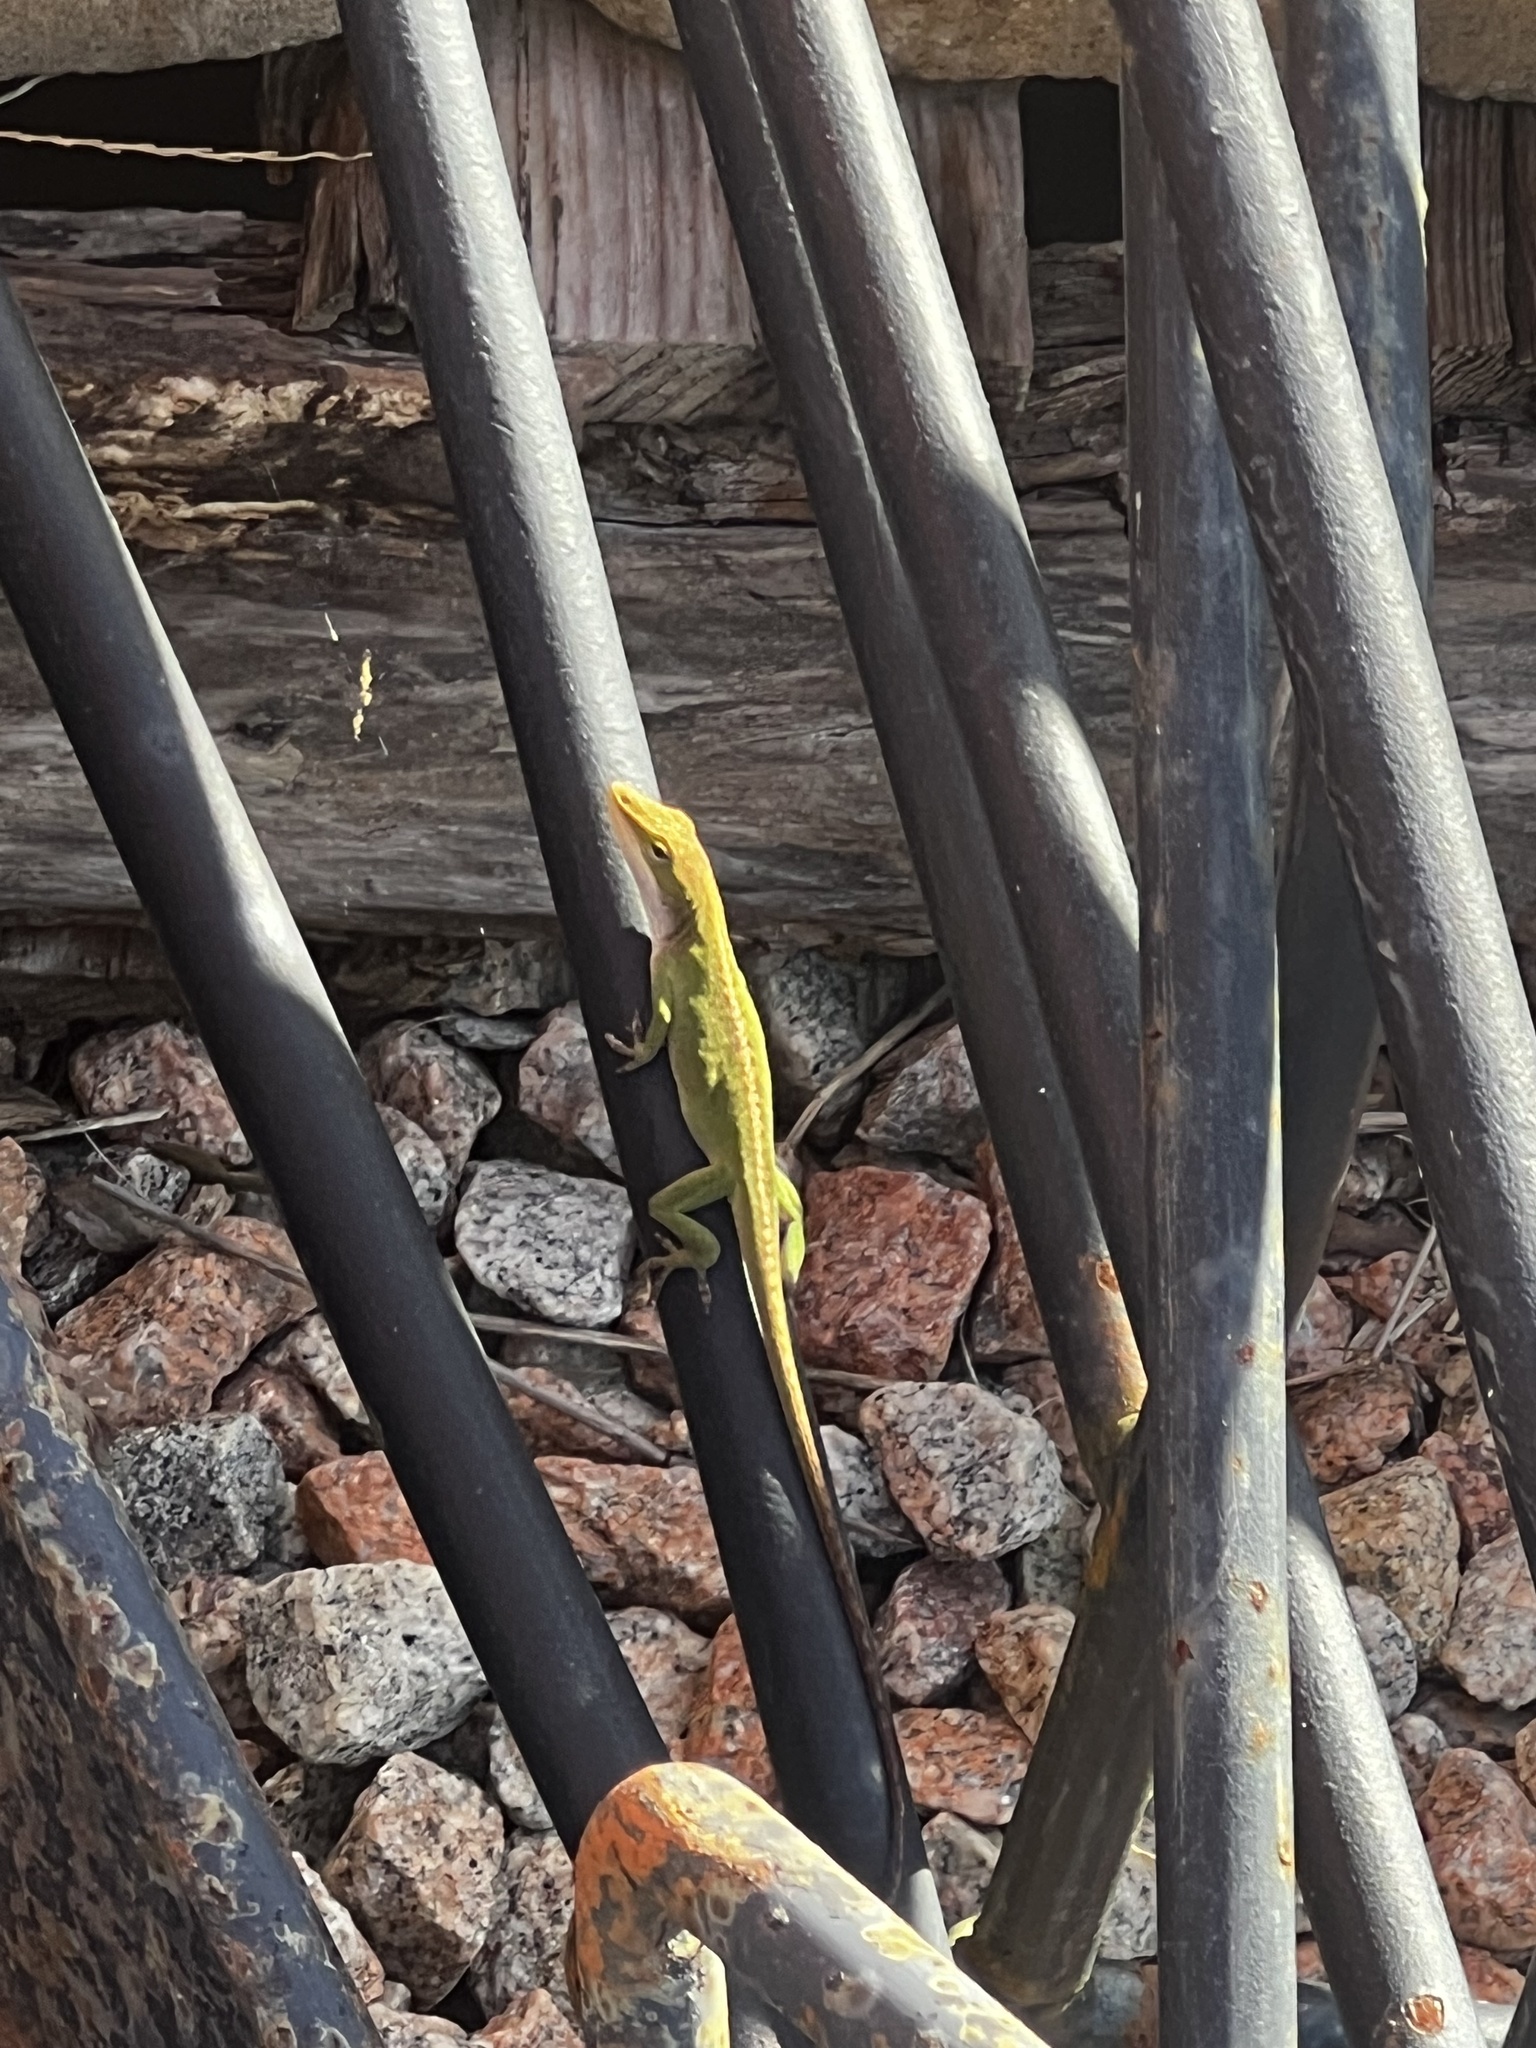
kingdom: Animalia
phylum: Chordata
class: Squamata
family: Dactyloidae
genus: Anolis
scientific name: Anolis carolinensis
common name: Green anole
